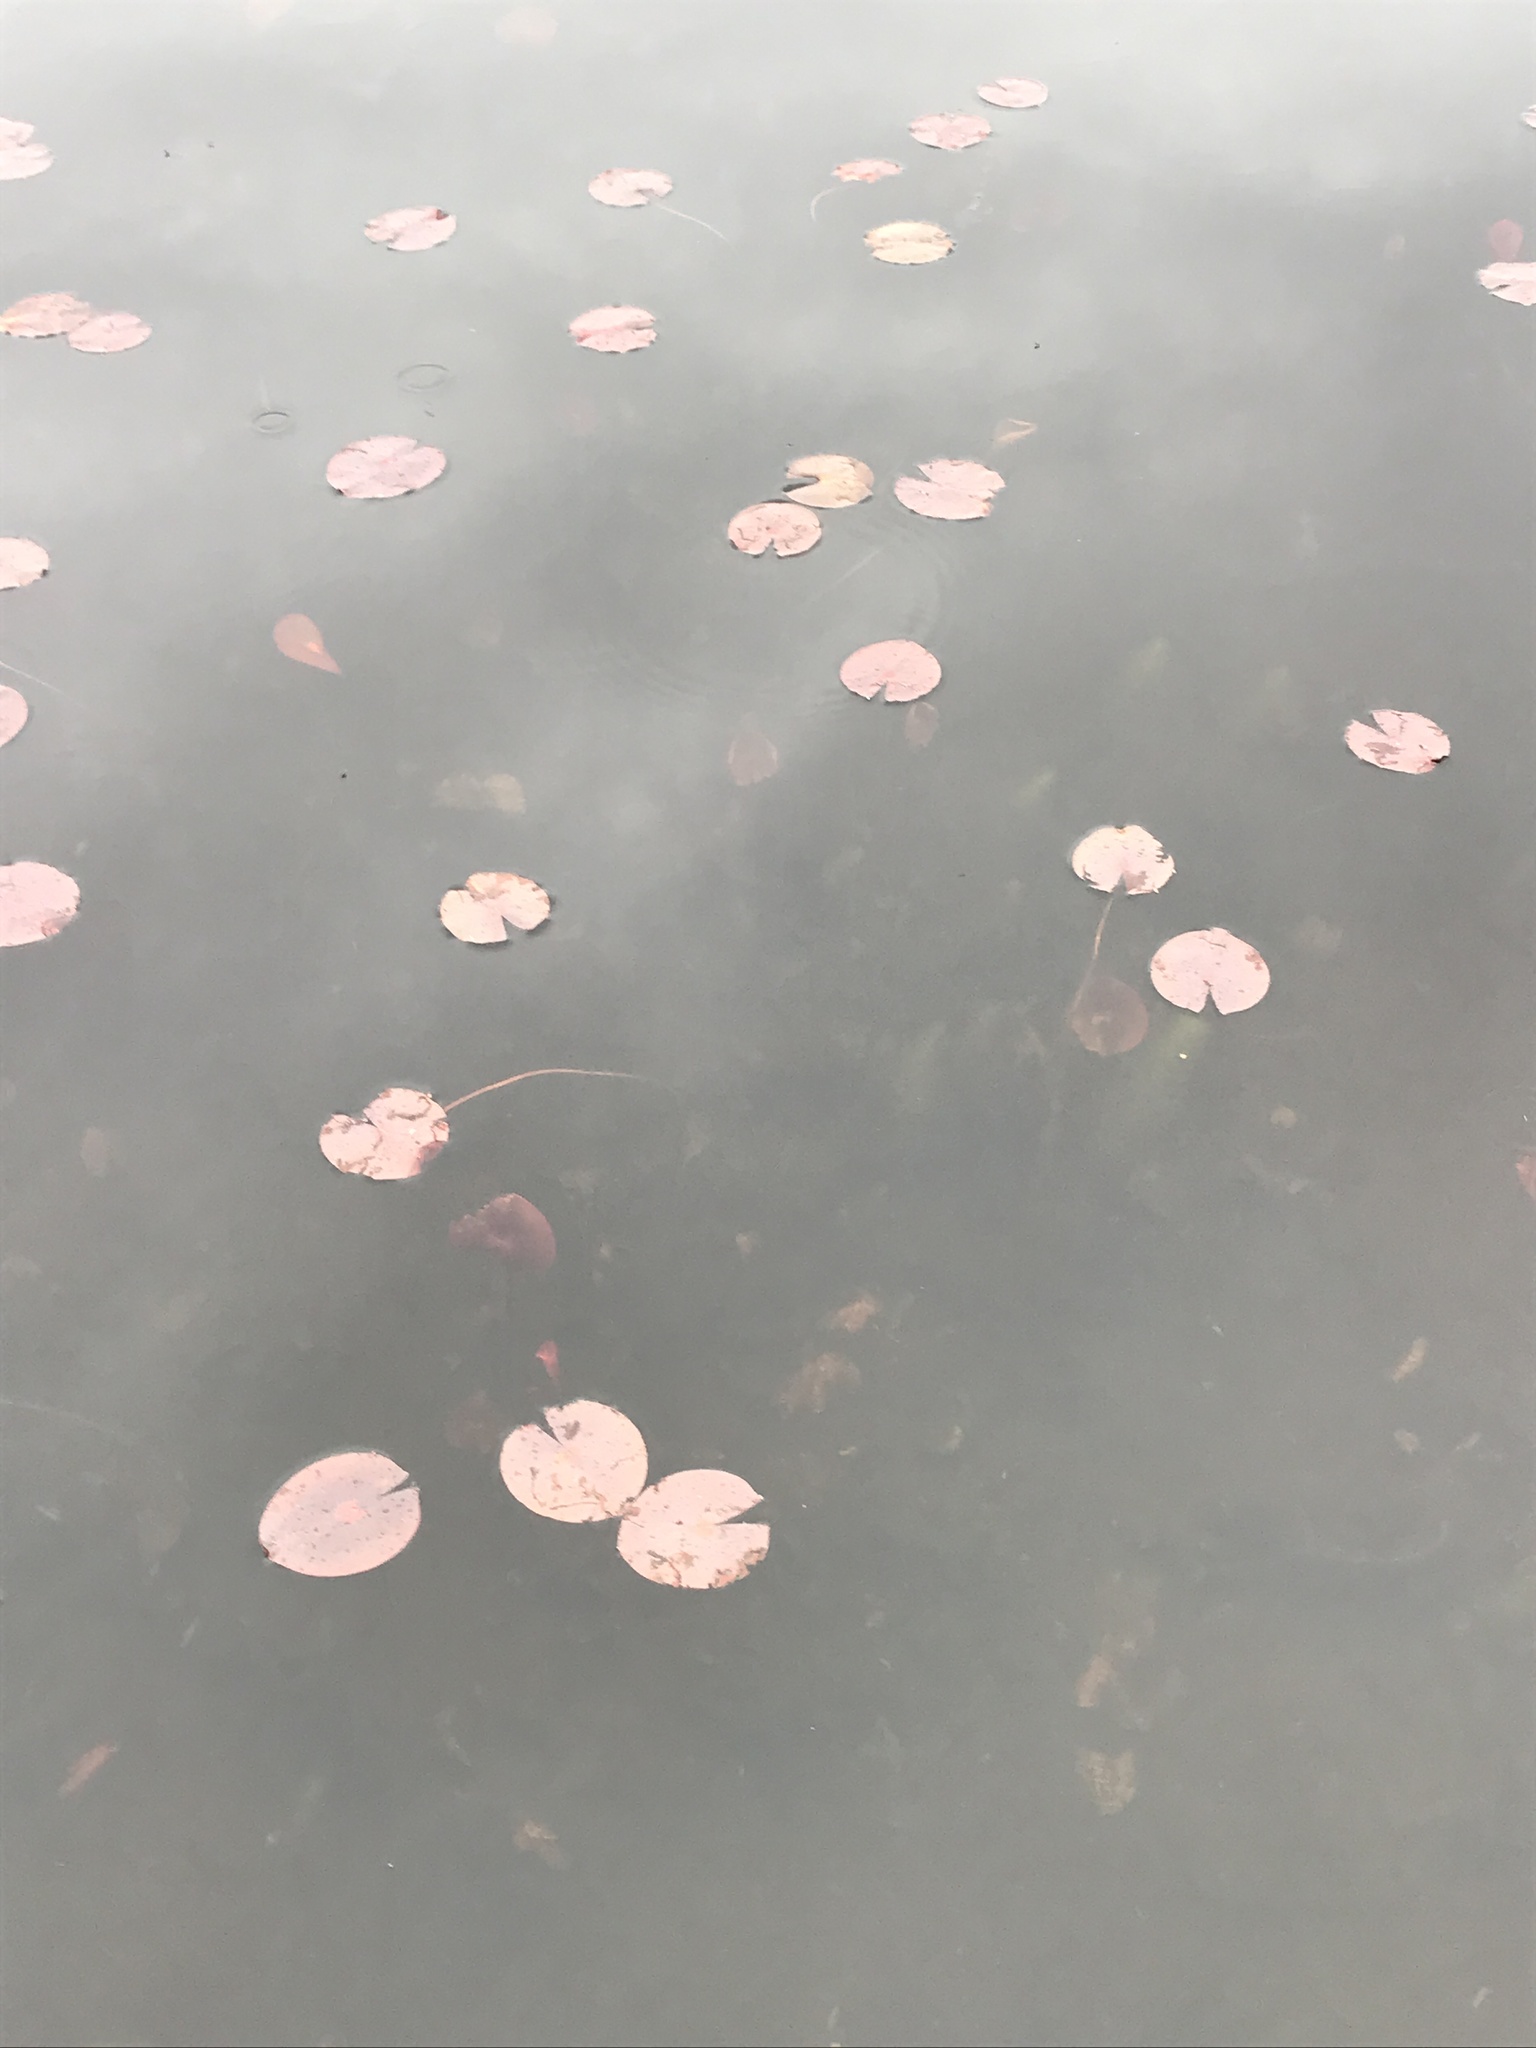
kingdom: Plantae
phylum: Tracheophyta
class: Magnoliopsida
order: Nymphaeales
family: Nymphaeaceae
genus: Nymphaea
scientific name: Nymphaea odorata
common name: Fragrant water-lily
